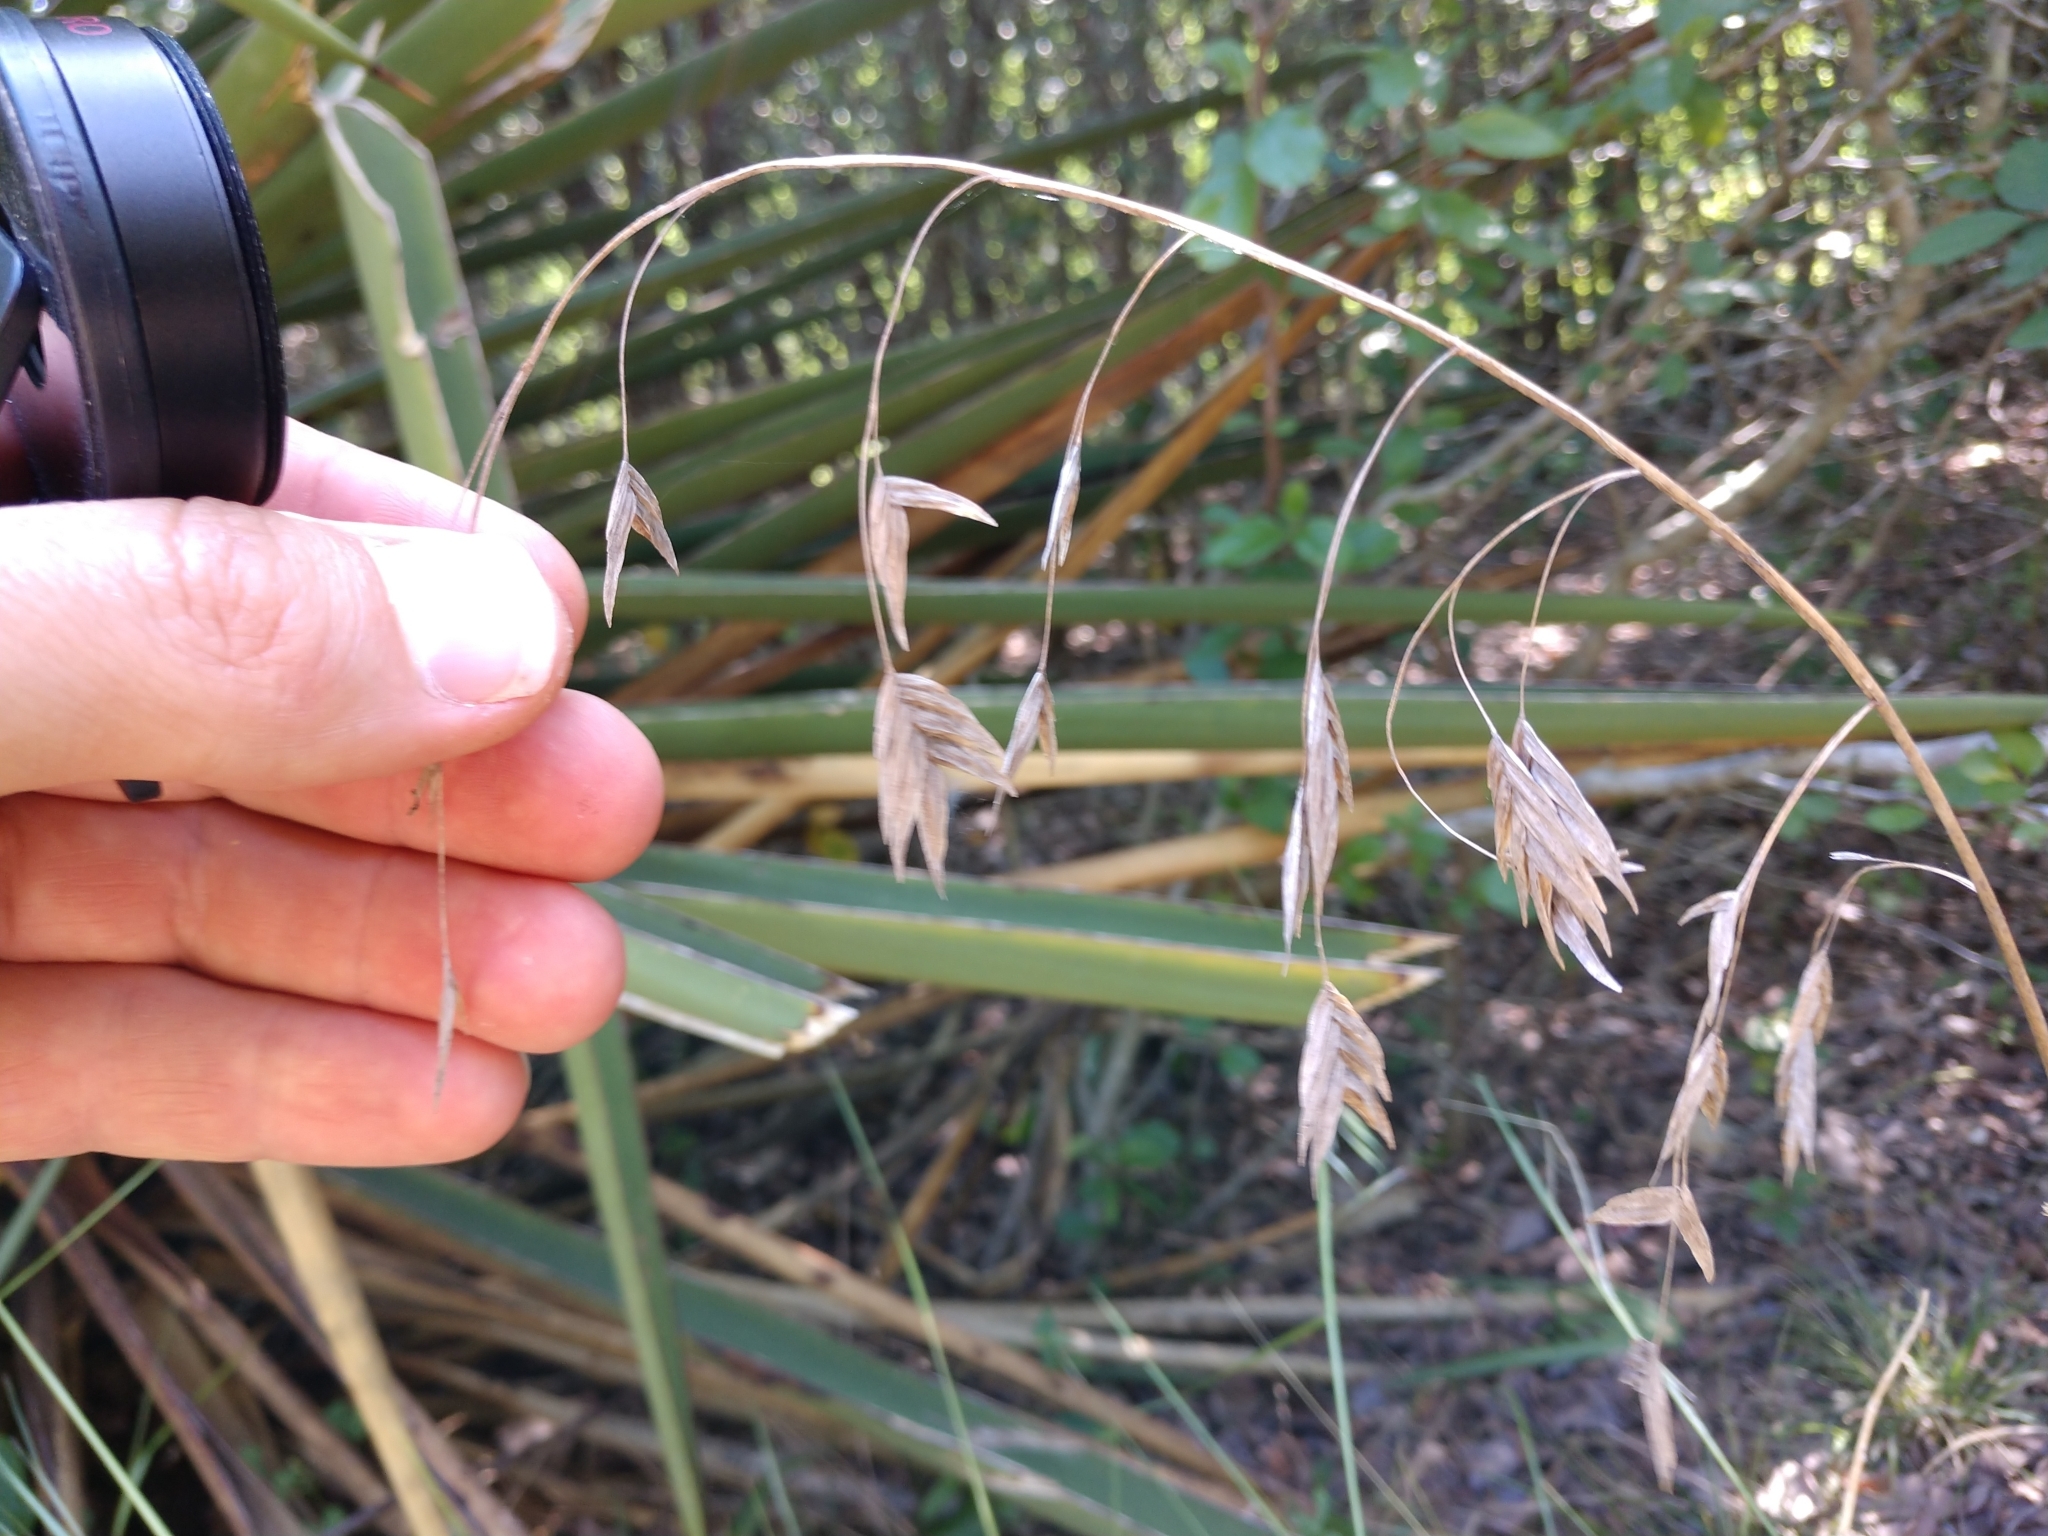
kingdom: Plantae
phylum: Tracheophyta
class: Liliopsida
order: Poales
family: Poaceae
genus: Chasmanthium
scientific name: Chasmanthium latifolium
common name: Broad-leaved chasmanthium
